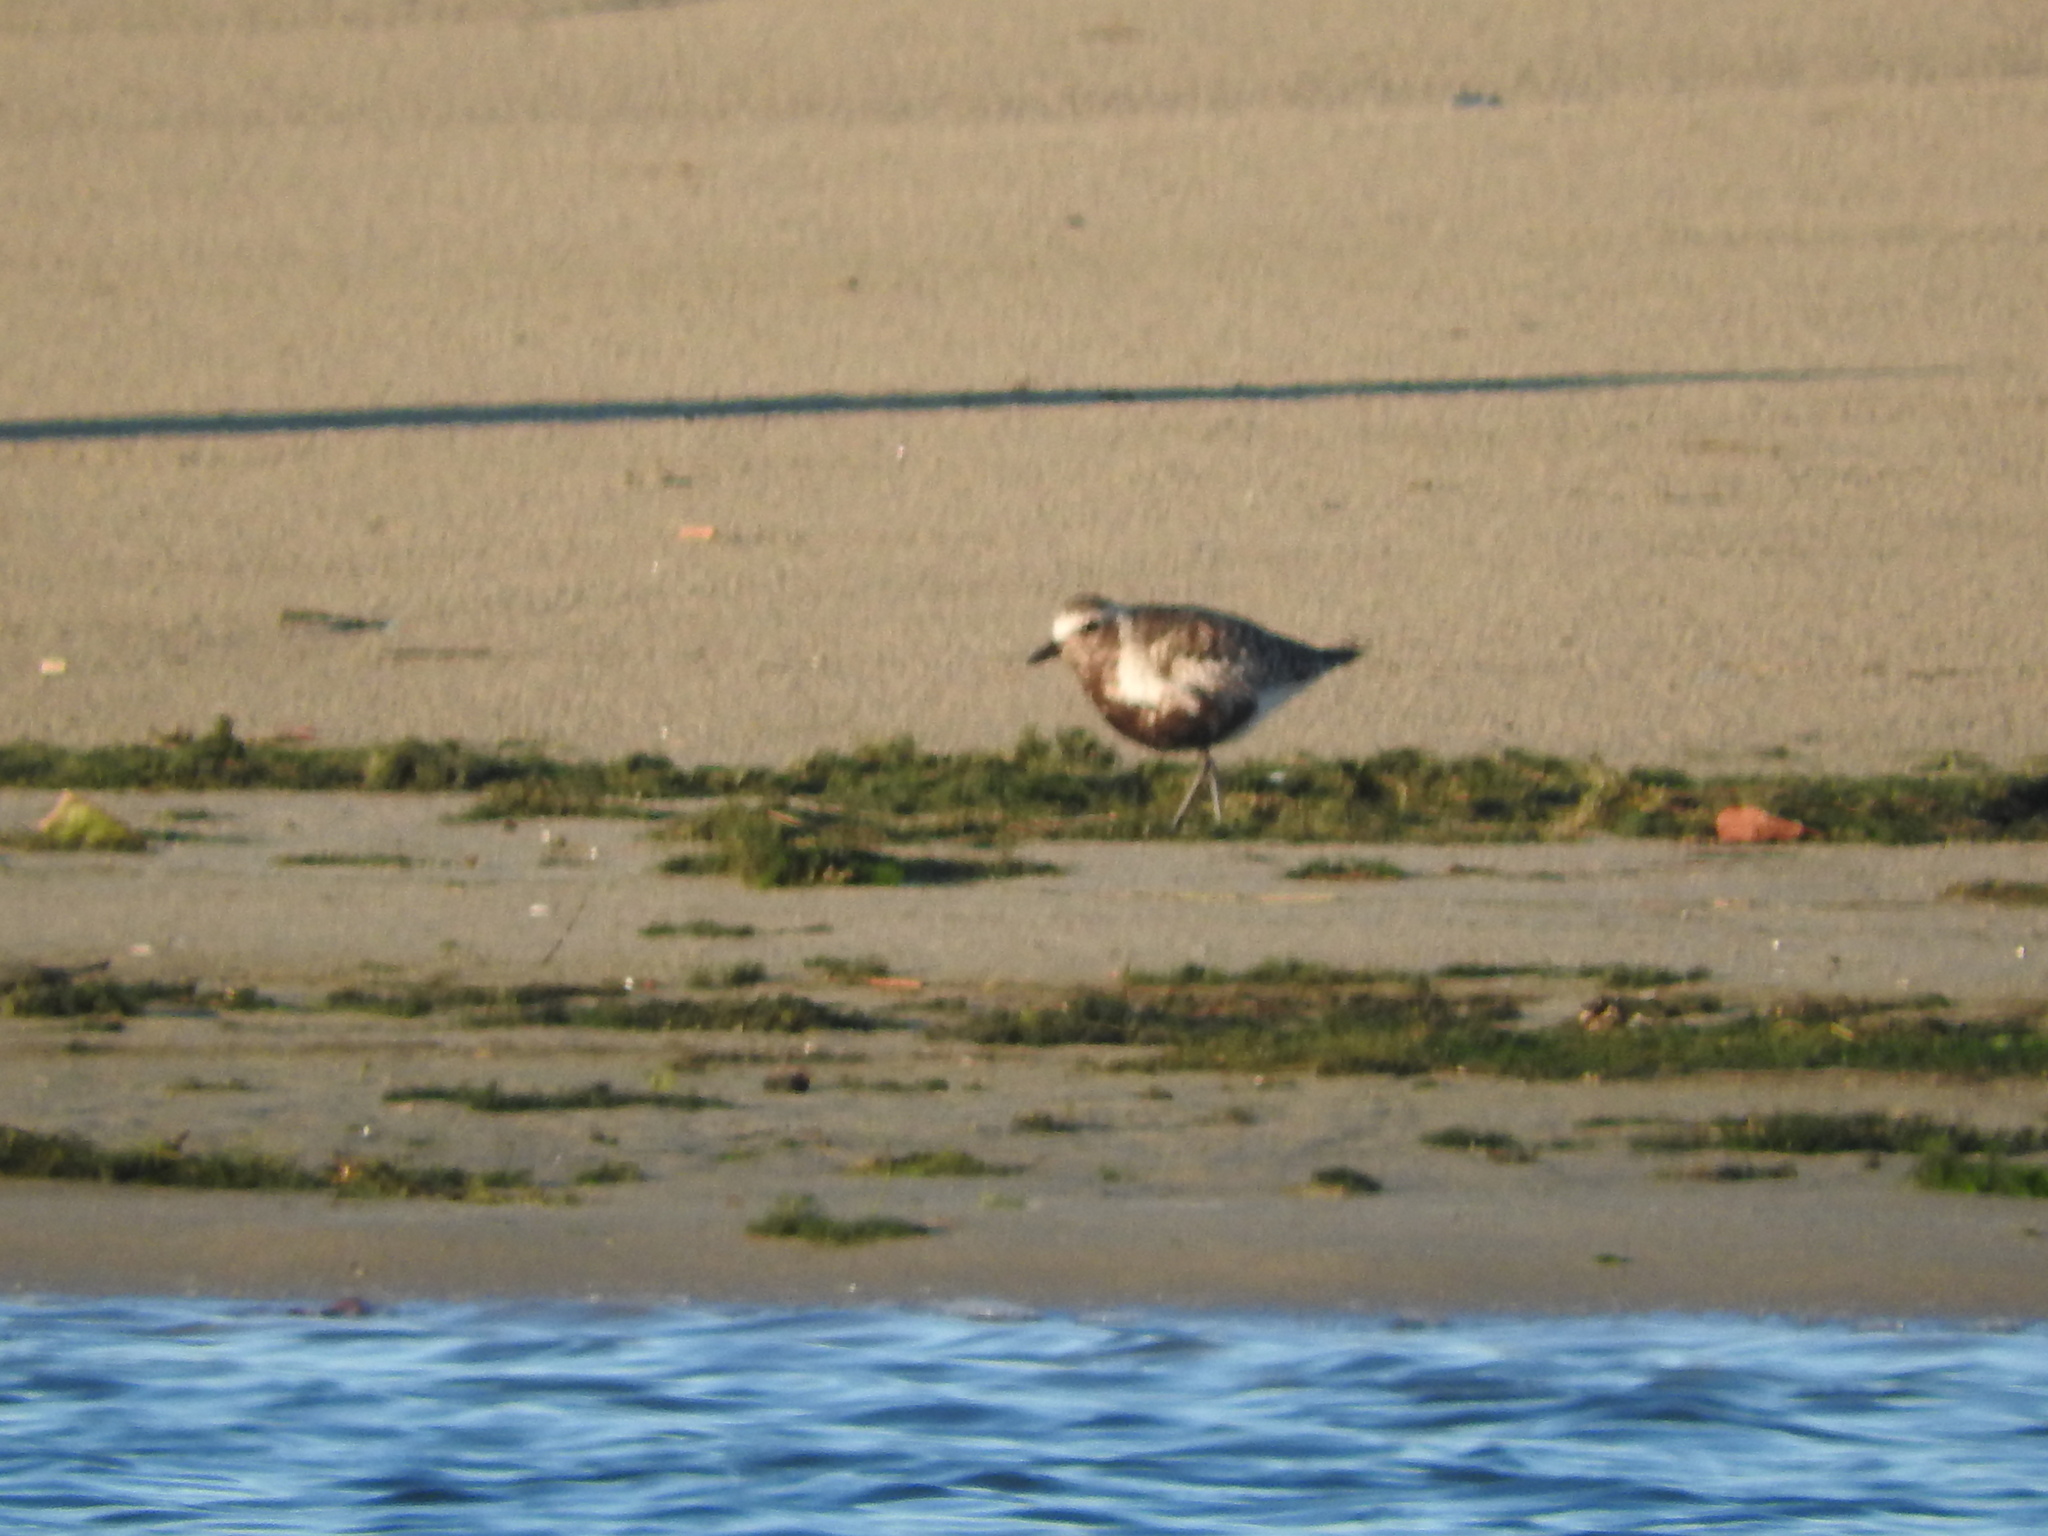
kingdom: Animalia
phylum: Chordata
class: Aves
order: Charadriiformes
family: Charadriidae
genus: Pluvialis
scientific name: Pluvialis squatarola
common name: Grey plover
